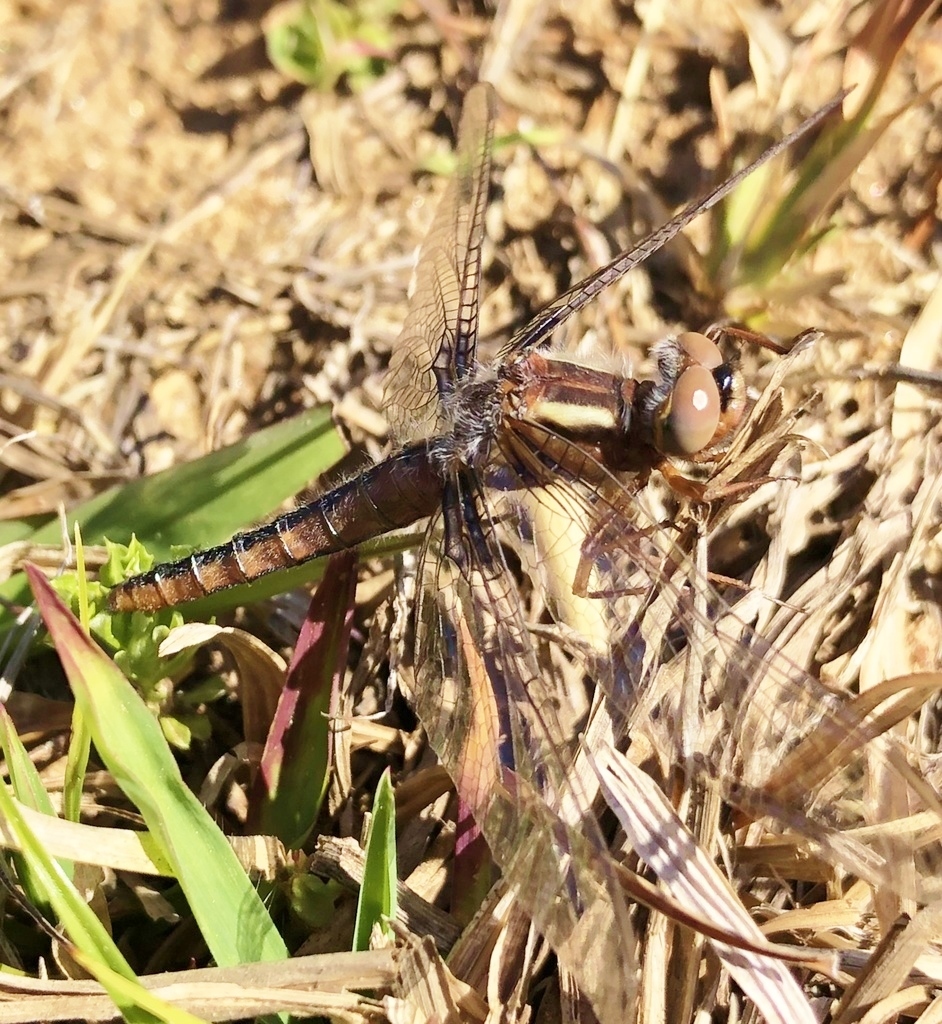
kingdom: Animalia
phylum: Arthropoda
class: Insecta
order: Odonata
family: Libellulidae
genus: Ladona
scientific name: Ladona deplanata
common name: Blue corporal
